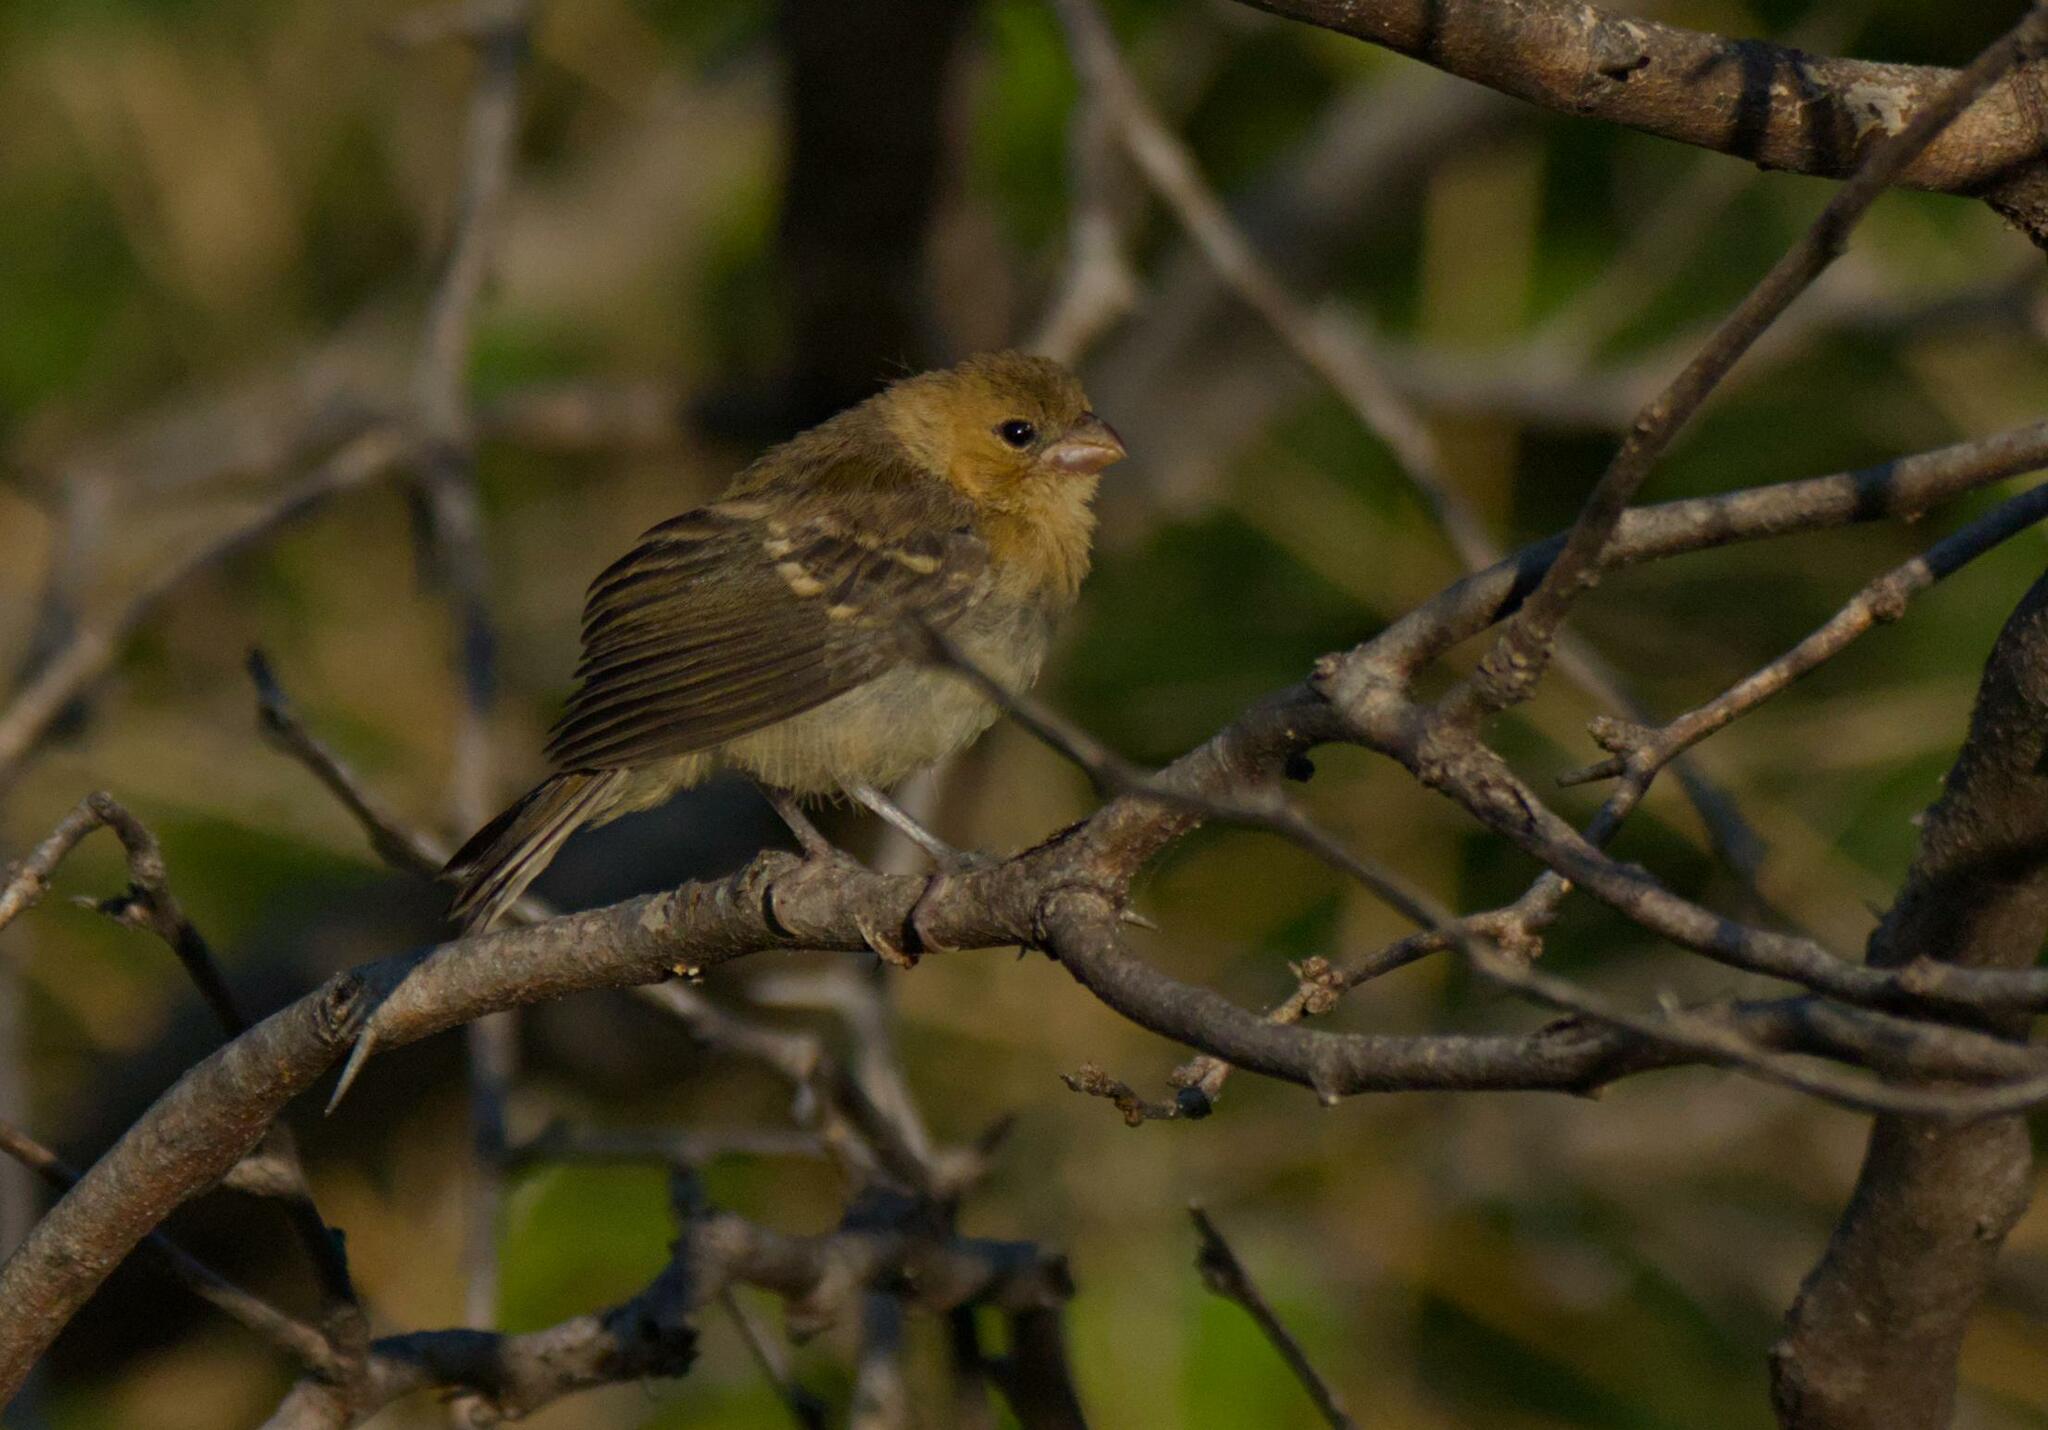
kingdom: Animalia
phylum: Chordata
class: Aves
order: Passeriformes
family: Thraupidae
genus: Sporophila
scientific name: Sporophila morelleti
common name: Morelet's seedeater
